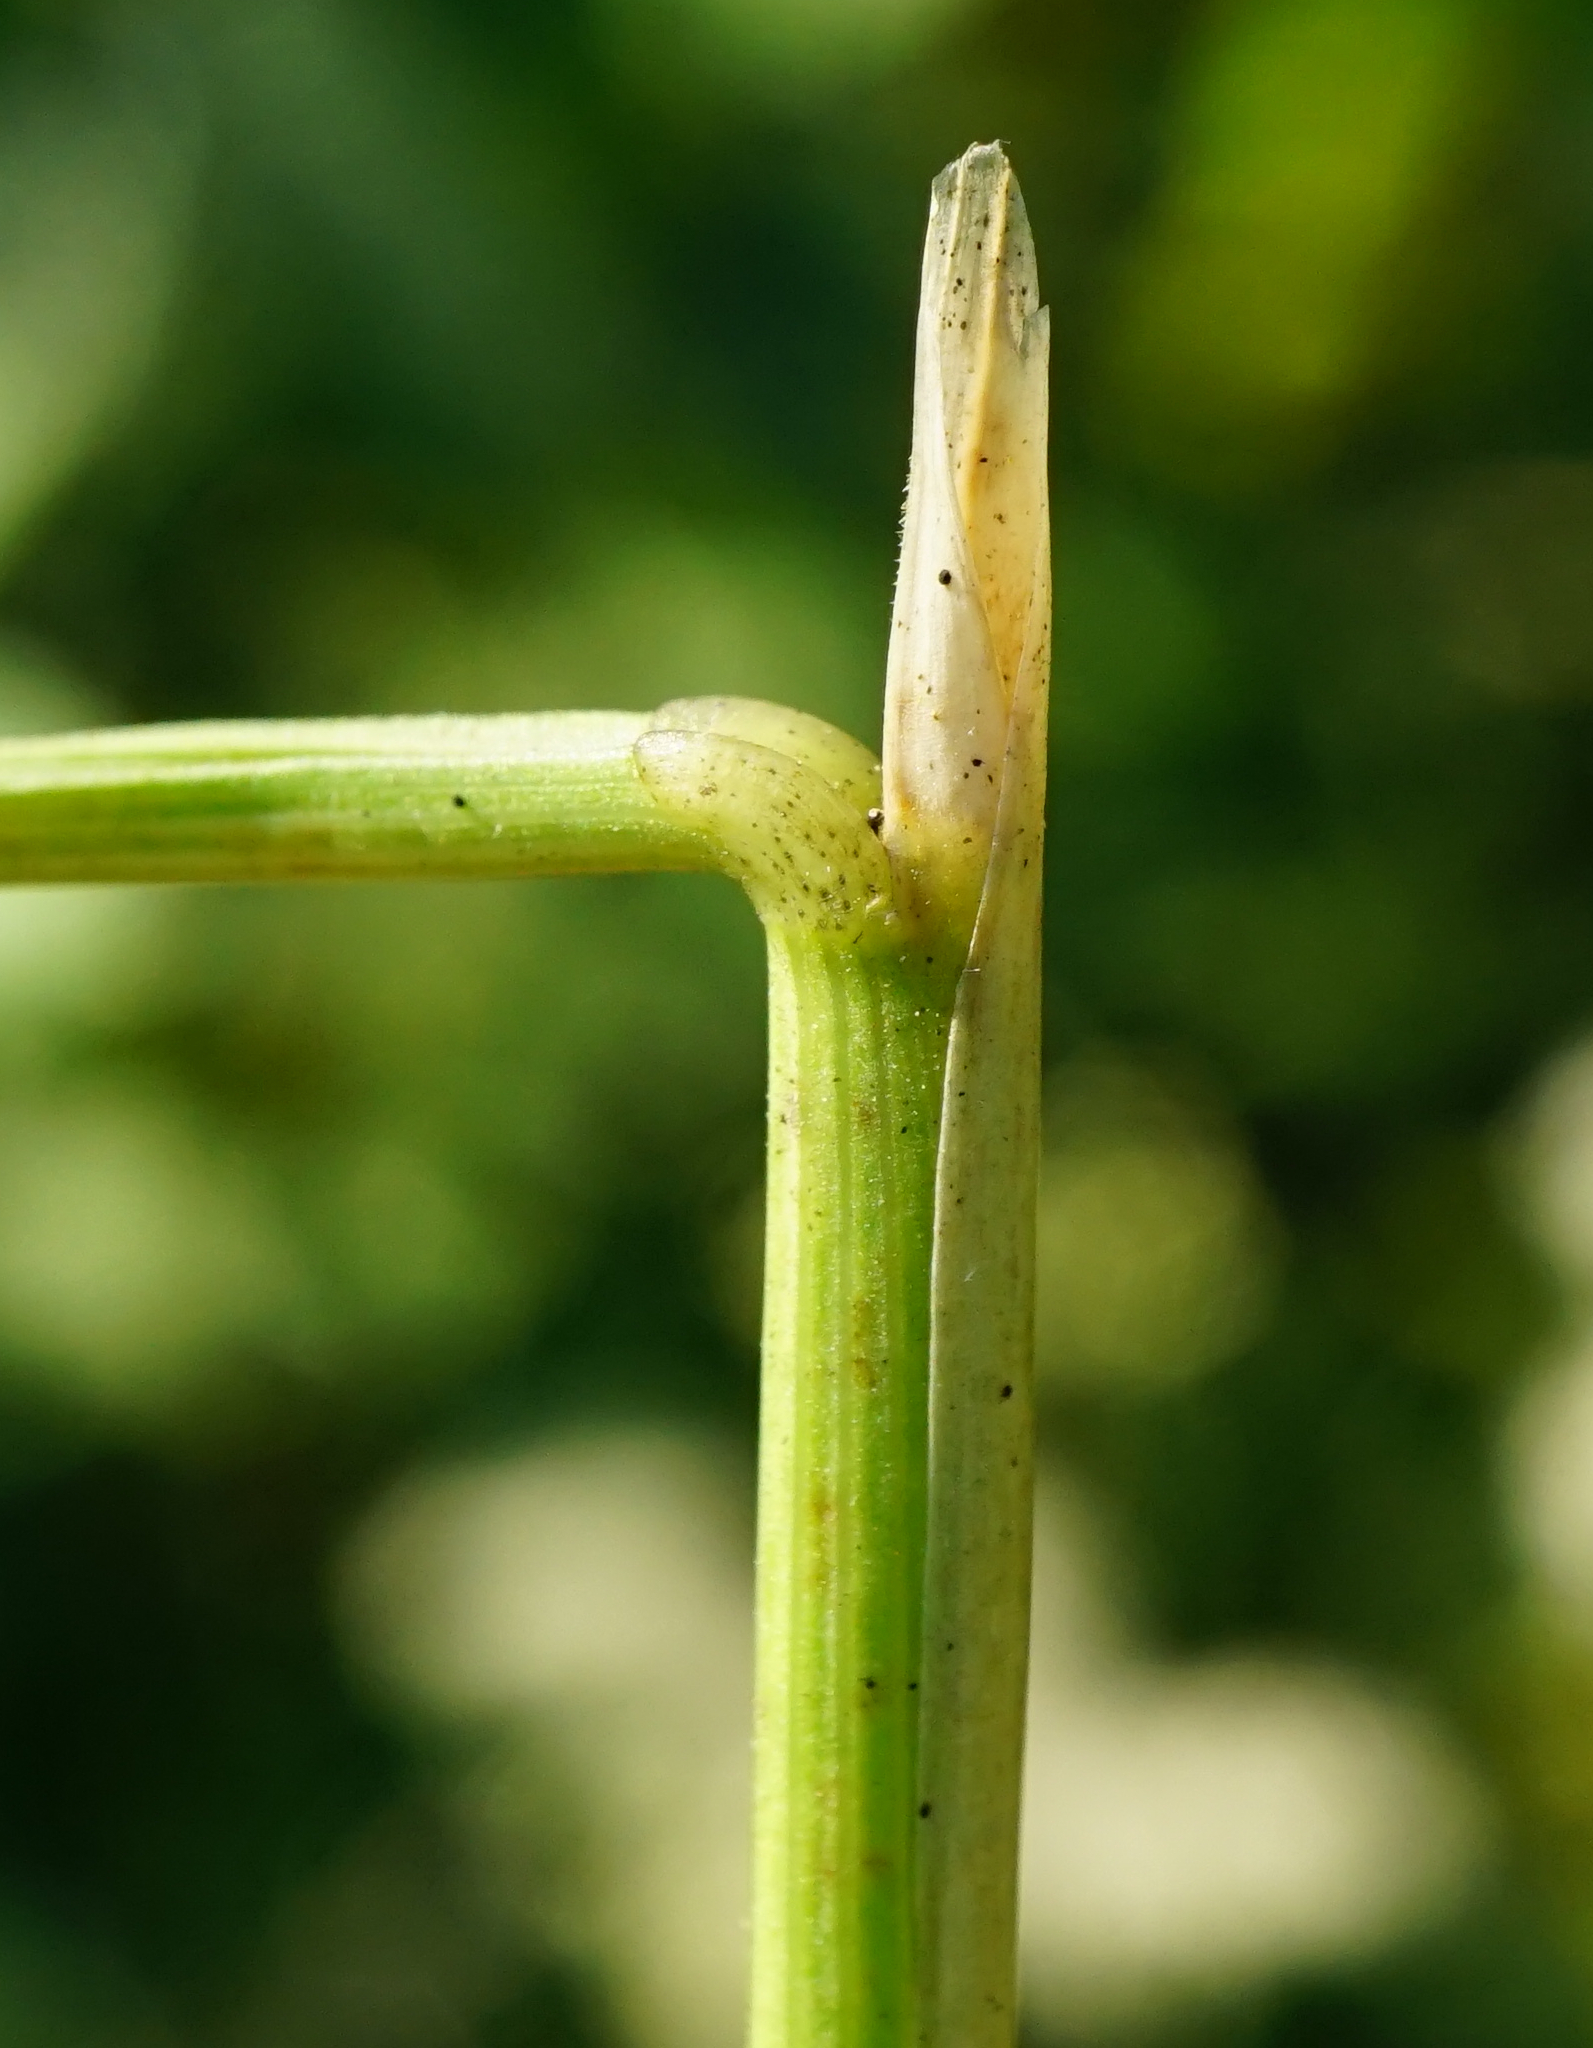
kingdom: Plantae
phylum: Tracheophyta
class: Liliopsida
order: Poales
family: Poaceae
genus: Deschampsia
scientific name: Deschampsia cespitosa
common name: Tufted hair-grass
